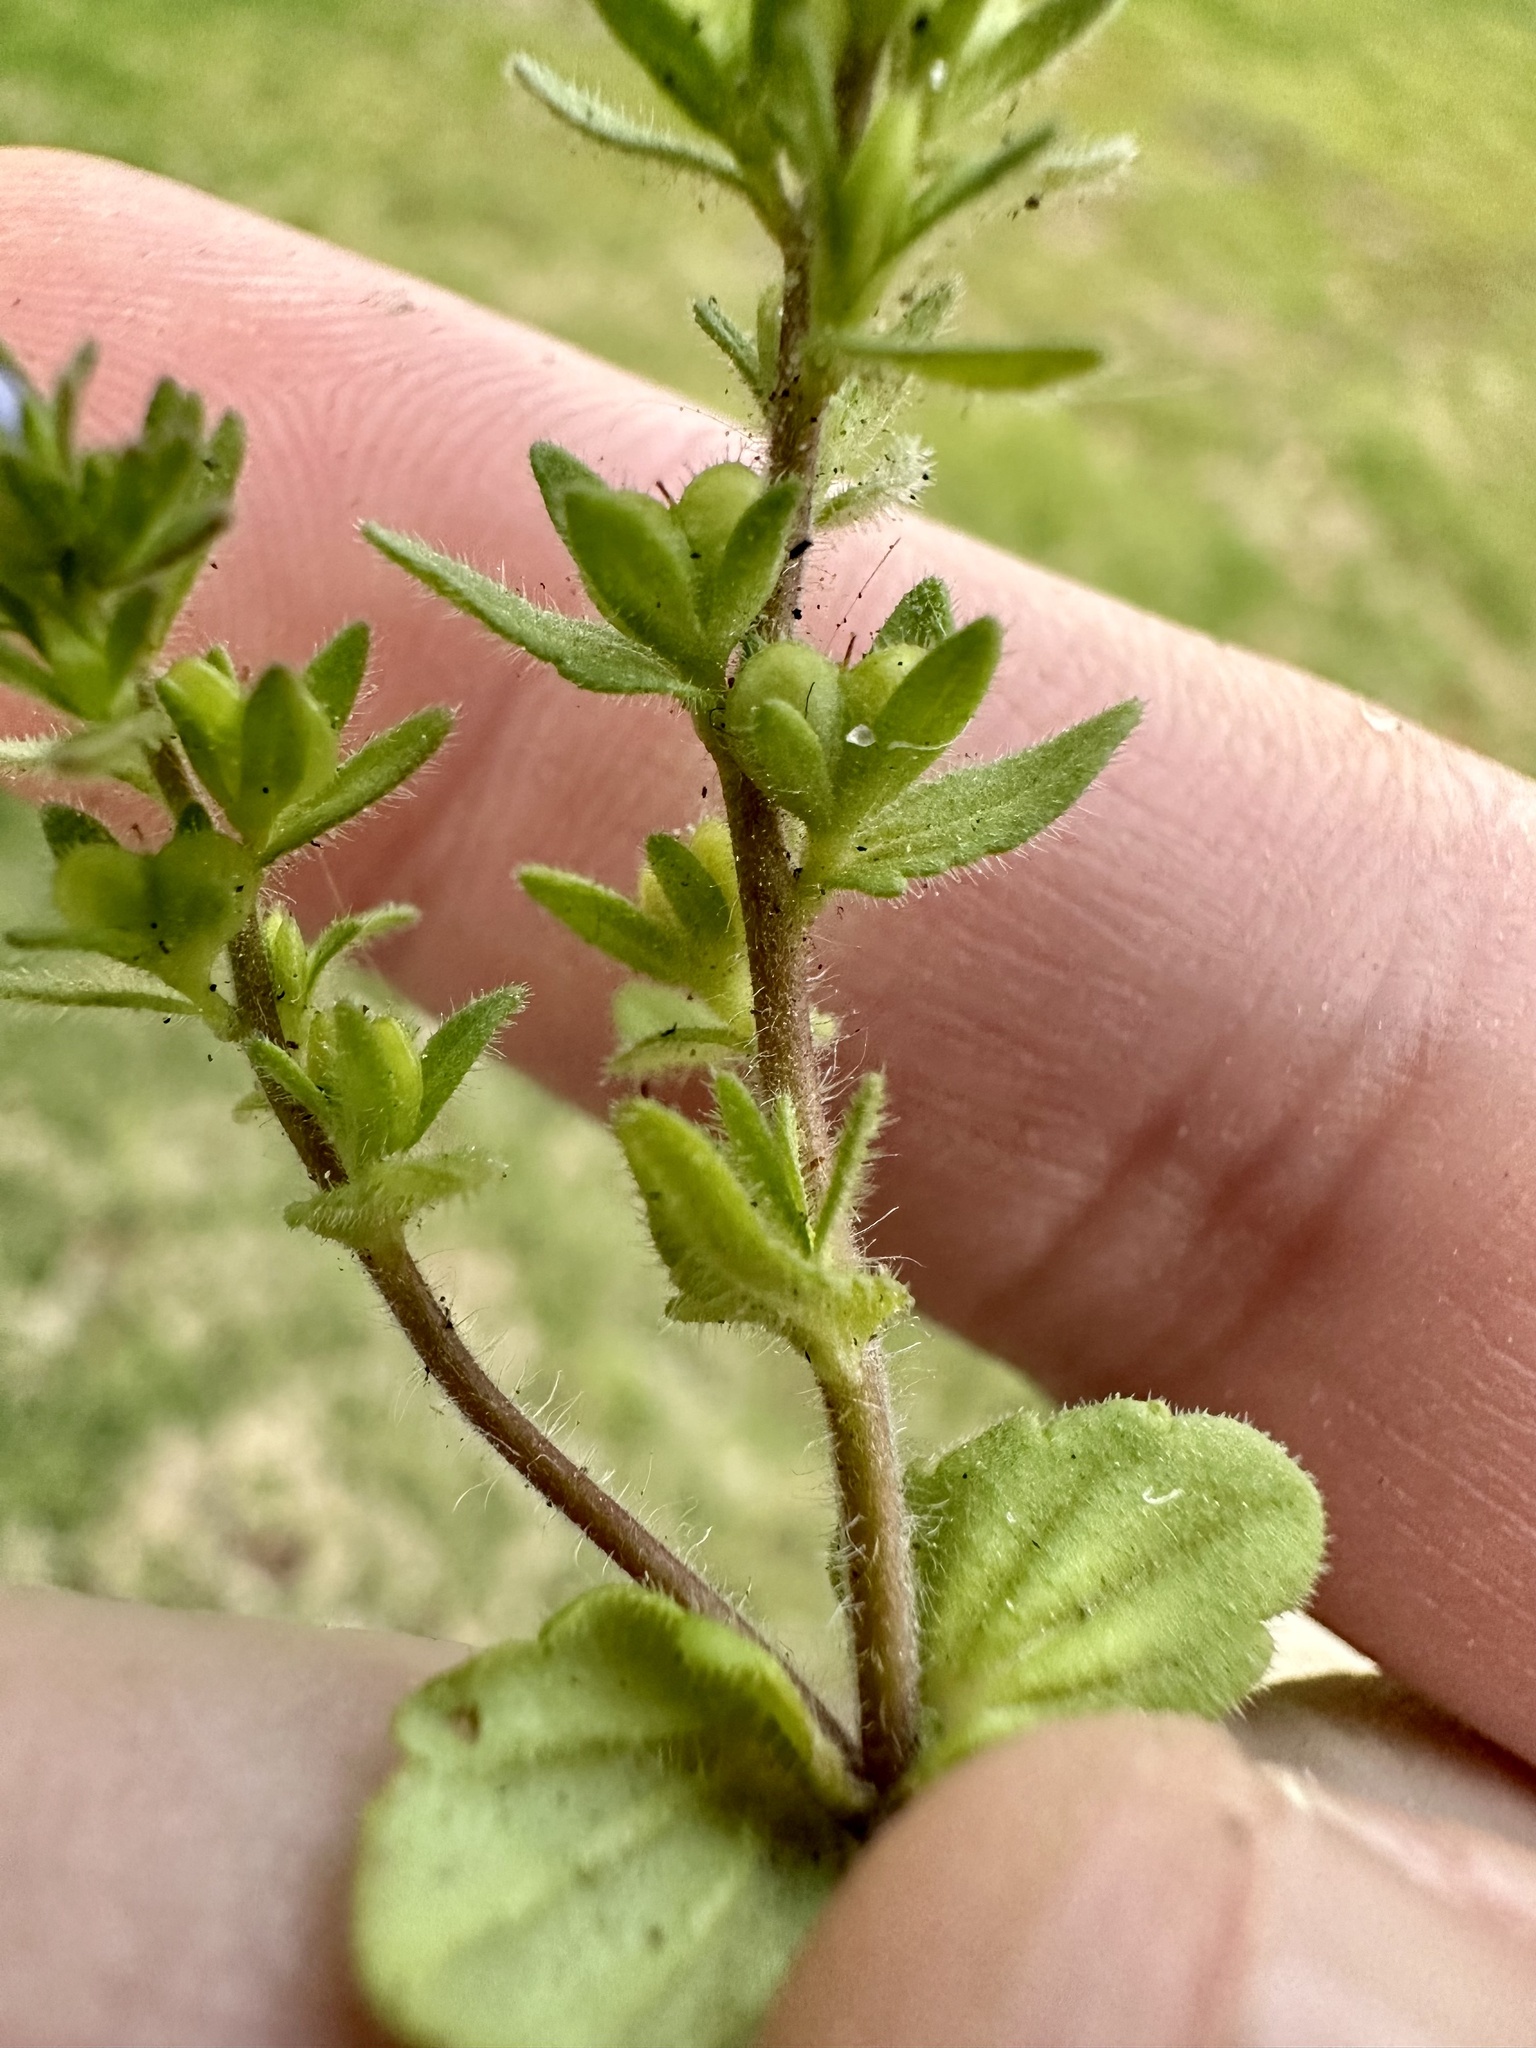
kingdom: Plantae
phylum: Tracheophyta
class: Magnoliopsida
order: Lamiales
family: Plantaginaceae
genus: Veronica
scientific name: Veronica arvensis
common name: Corn speedwell
